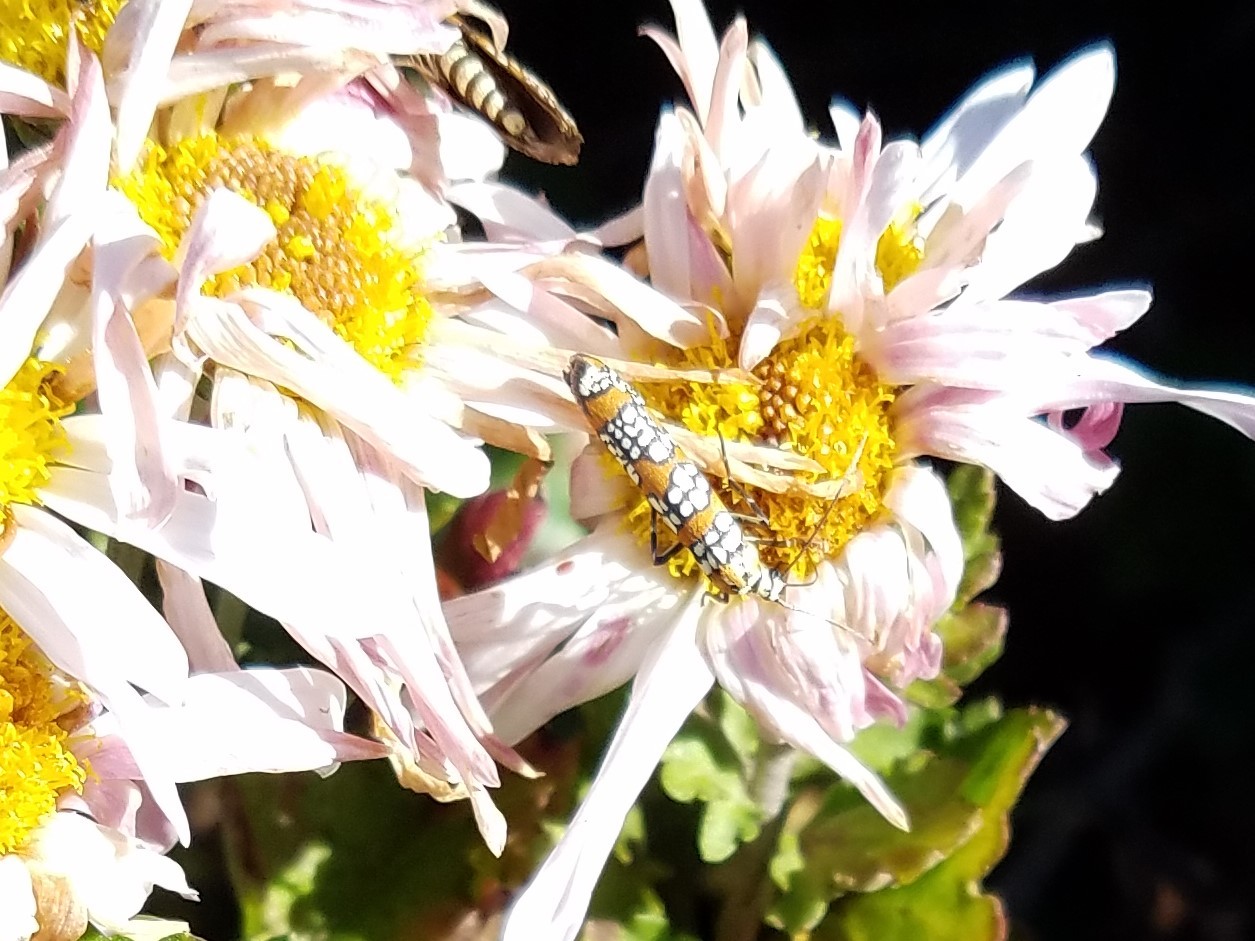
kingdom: Animalia
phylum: Arthropoda
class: Insecta
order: Lepidoptera
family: Attevidae
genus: Atteva
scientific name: Atteva punctella
